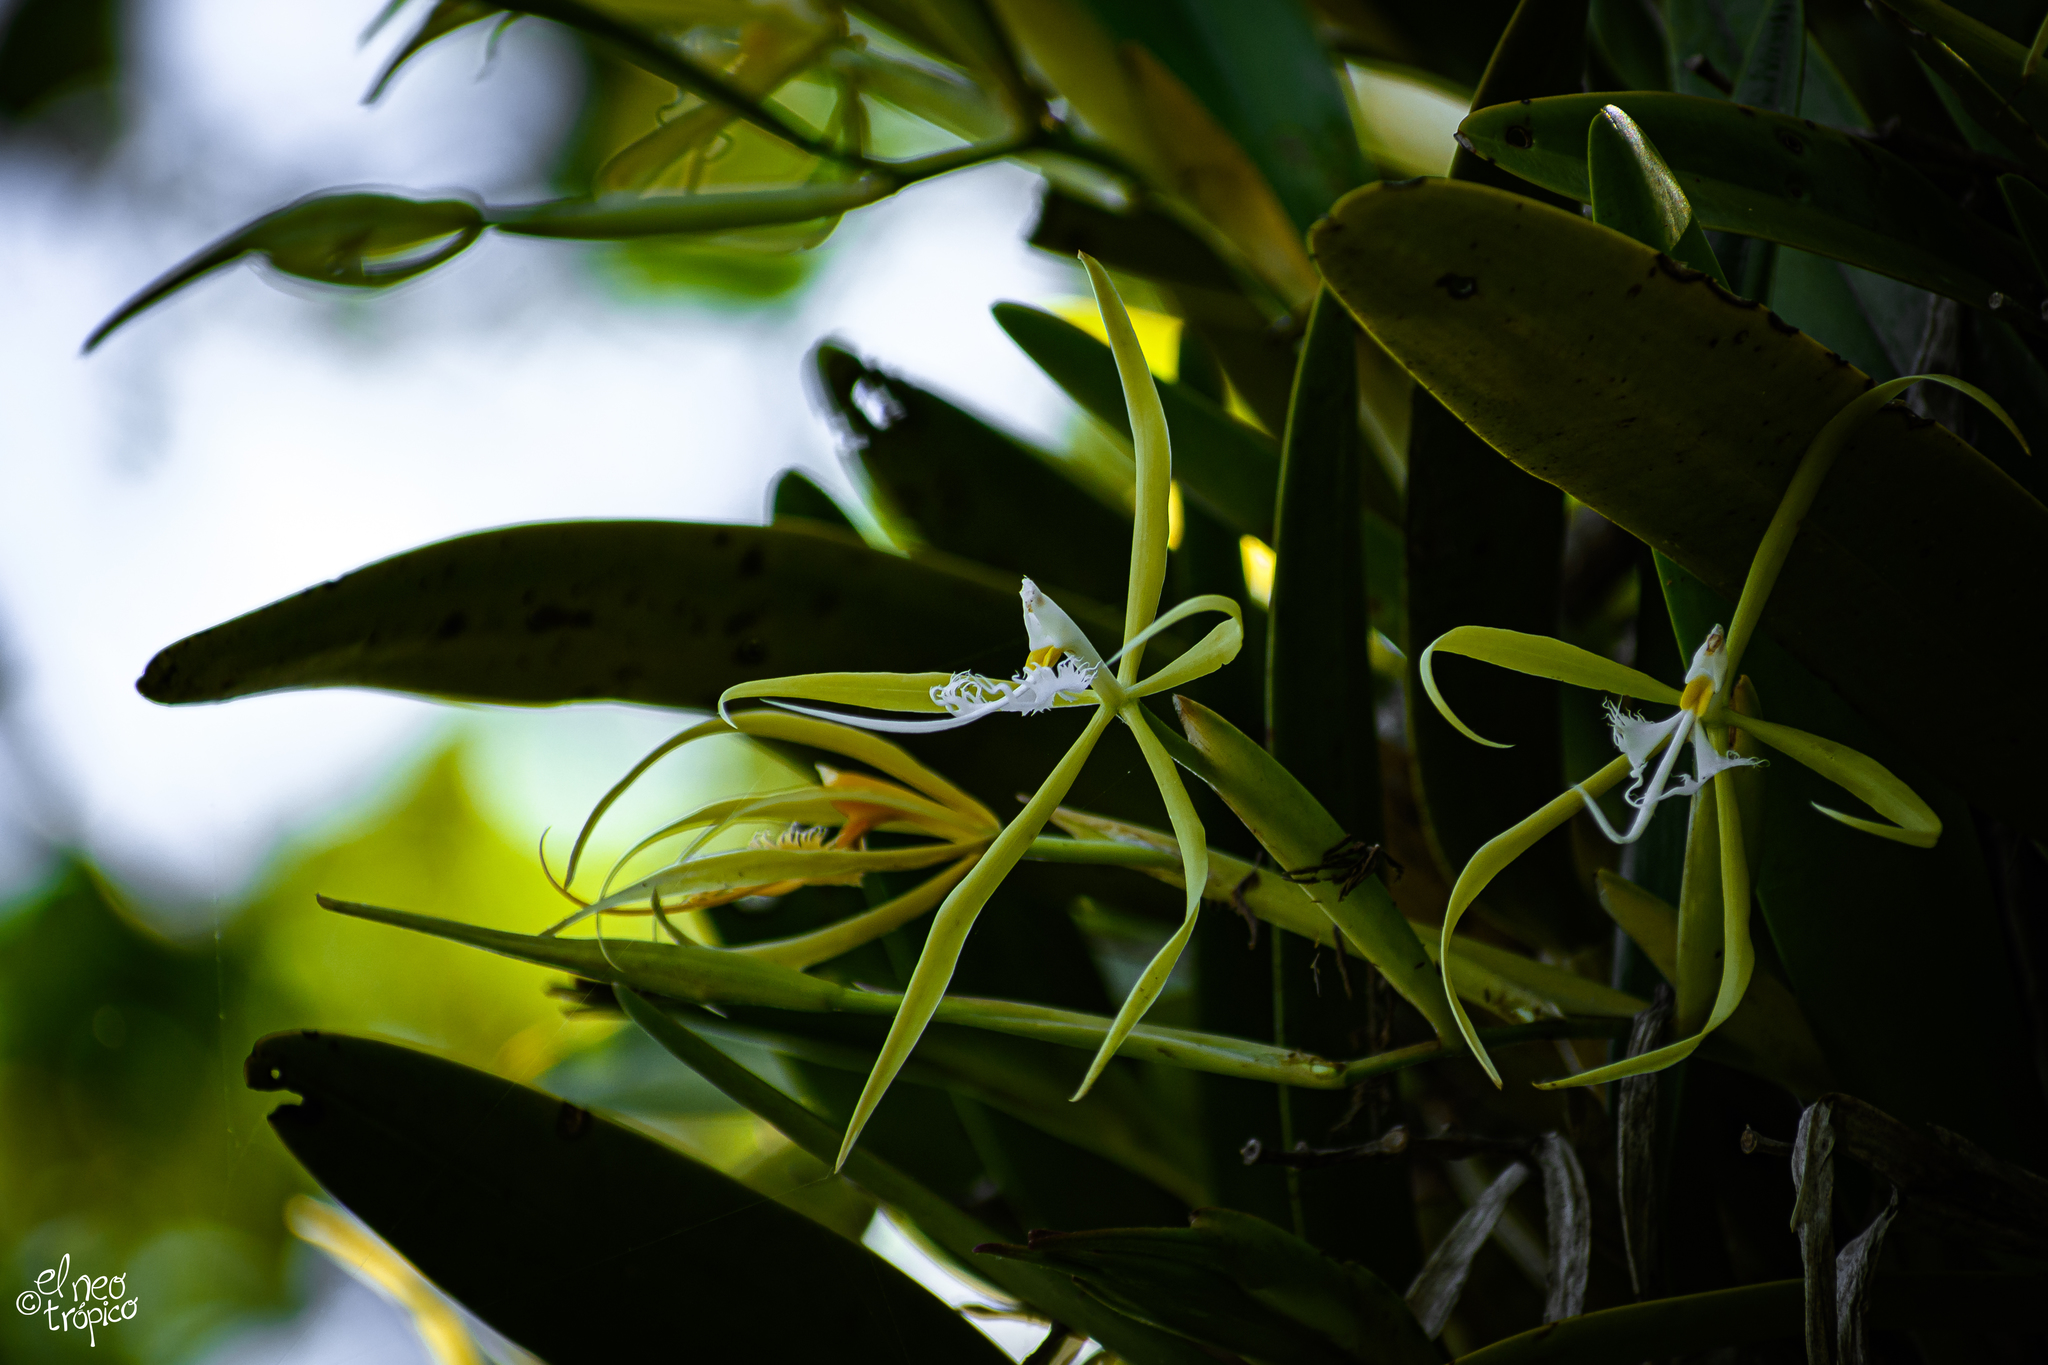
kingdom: Plantae
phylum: Tracheophyta
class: Liliopsida
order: Asparagales
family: Orchidaceae
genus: Epidendrum
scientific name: Epidendrum ciliare
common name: Eyelash orchid
